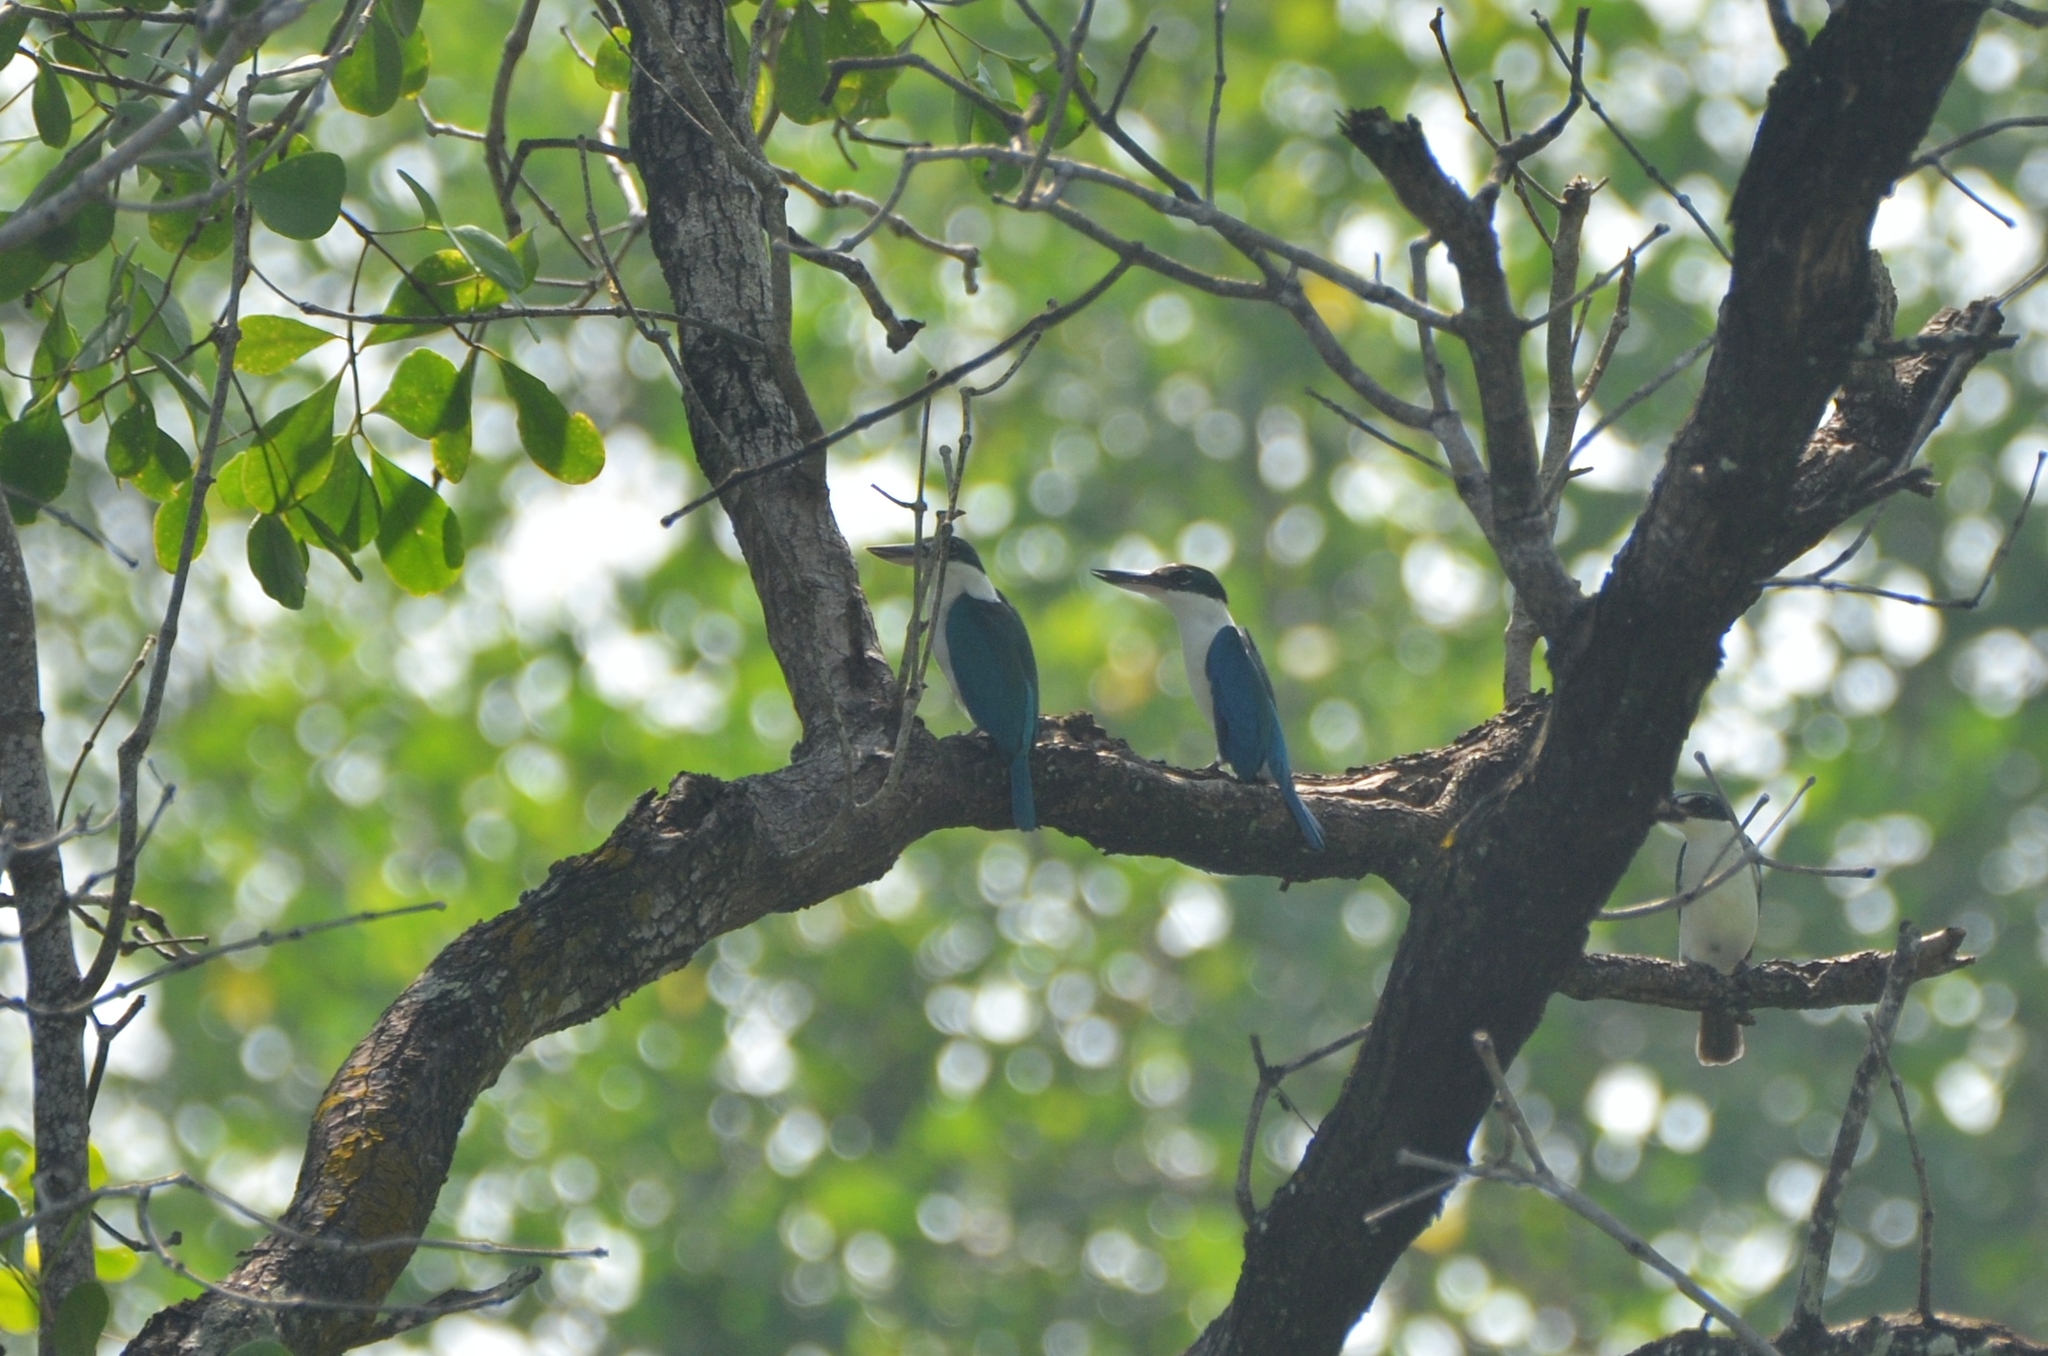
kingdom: Animalia
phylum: Chordata
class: Aves
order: Coraciiformes
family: Alcedinidae
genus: Todiramphus
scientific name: Todiramphus chloris
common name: Collared kingfisher
